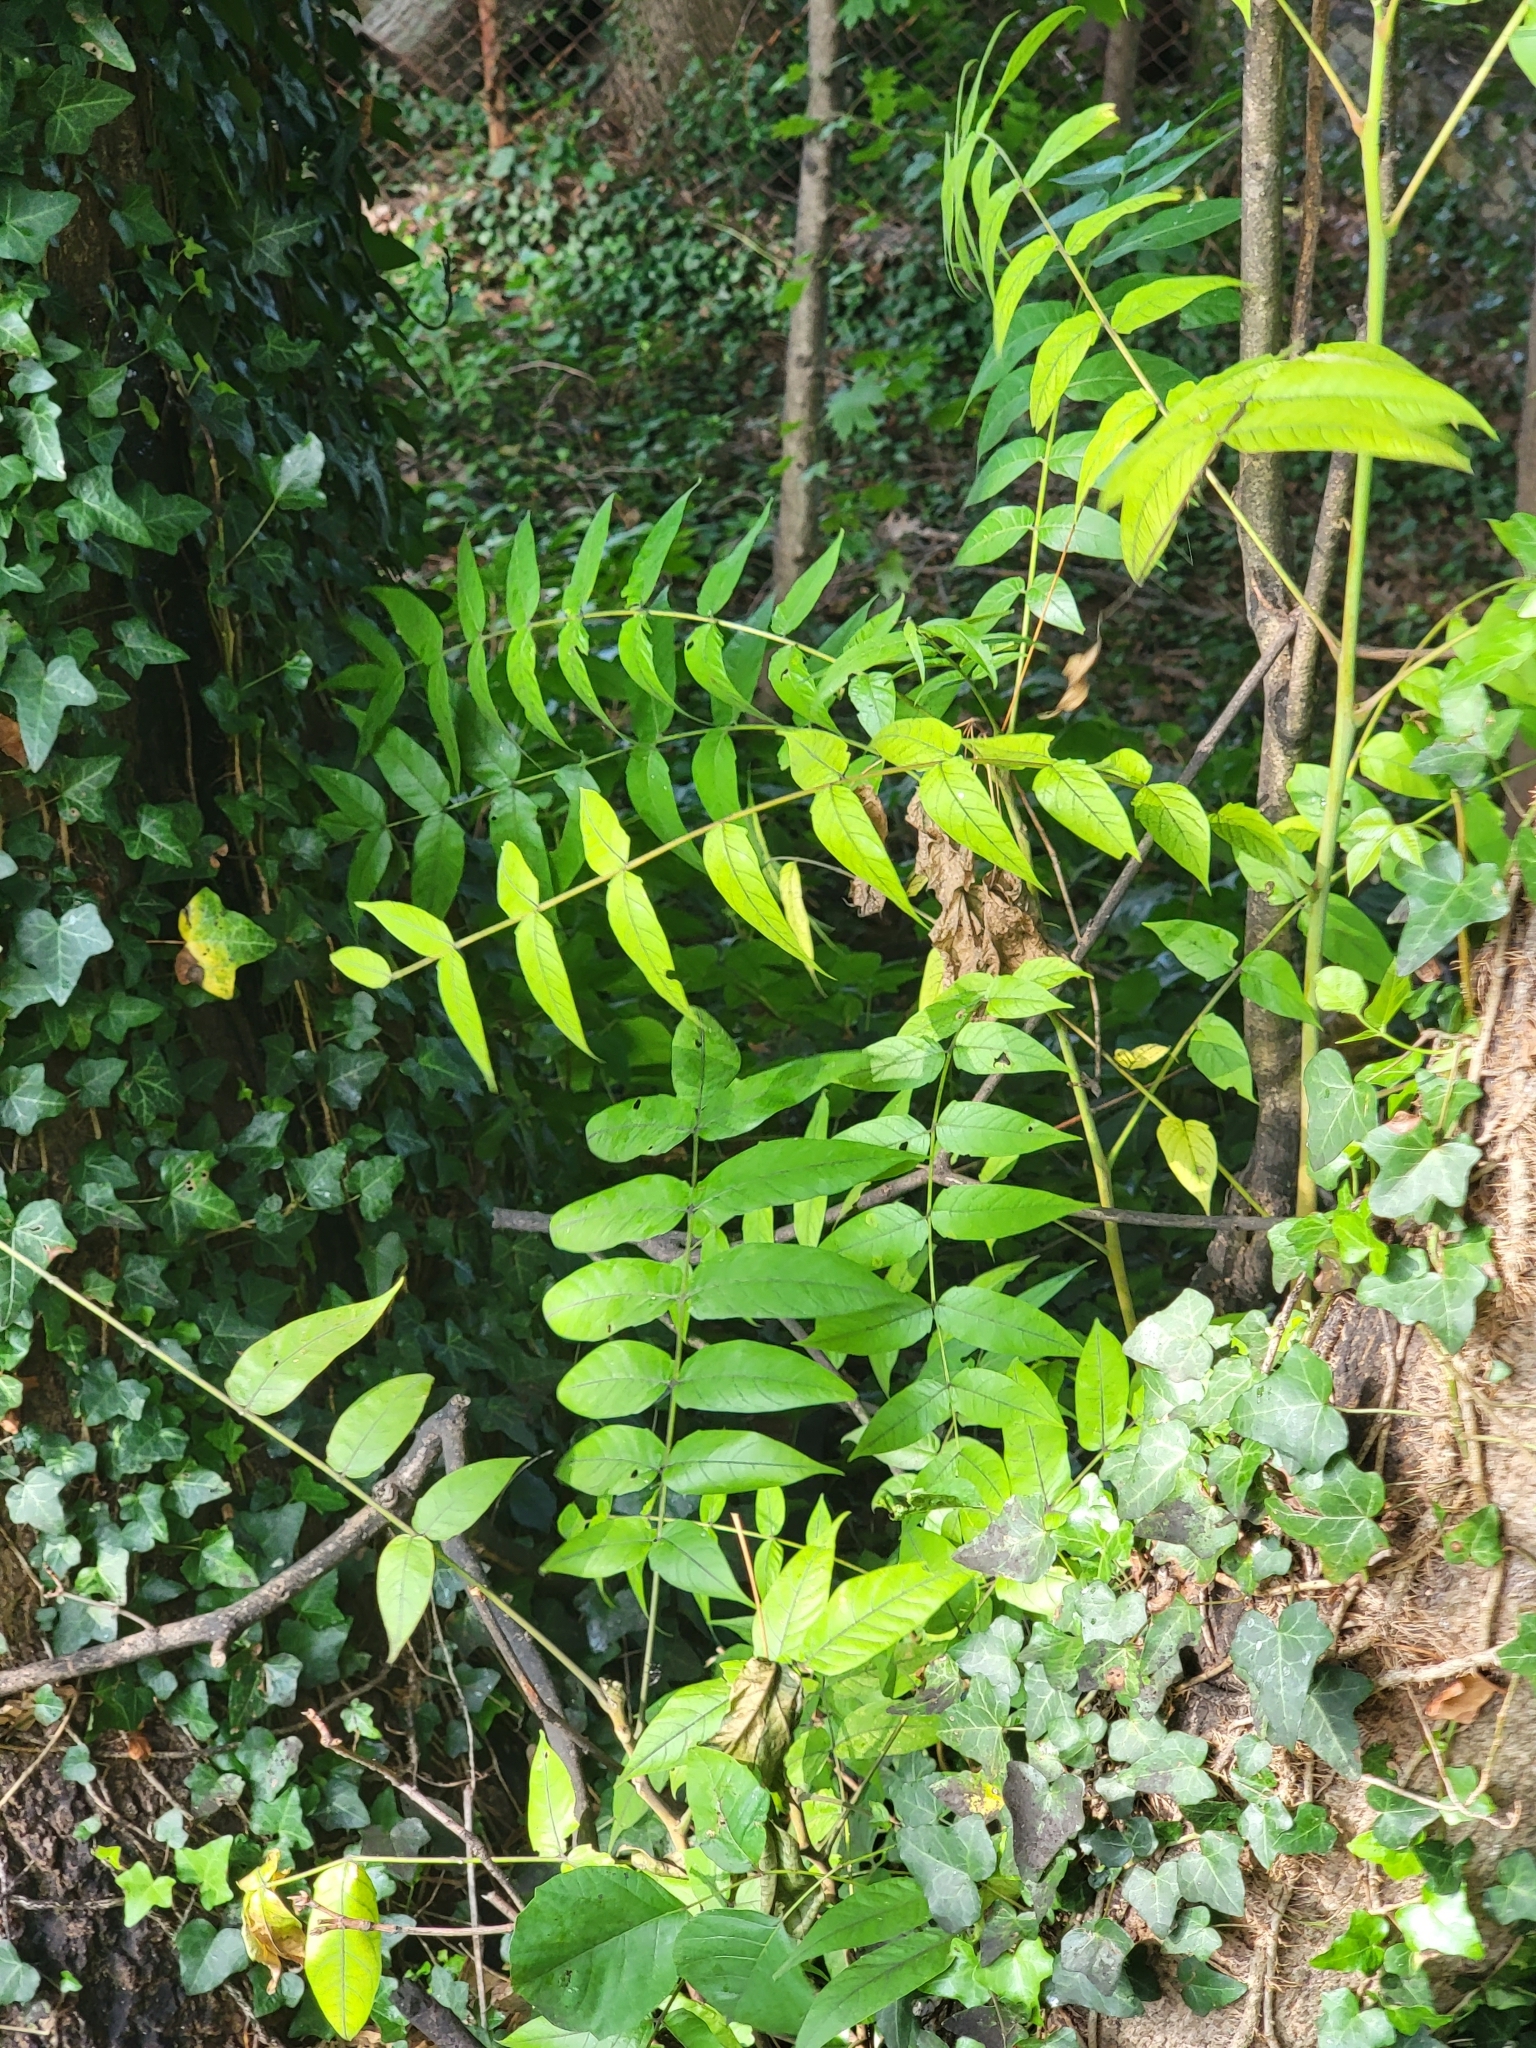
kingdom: Plantae
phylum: Tracheophyta
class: Magnoliopsida
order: Sapindales
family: Simaroubaceae
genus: Ailanthus
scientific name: Ailanthus altissima
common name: Tree-of-heaven
